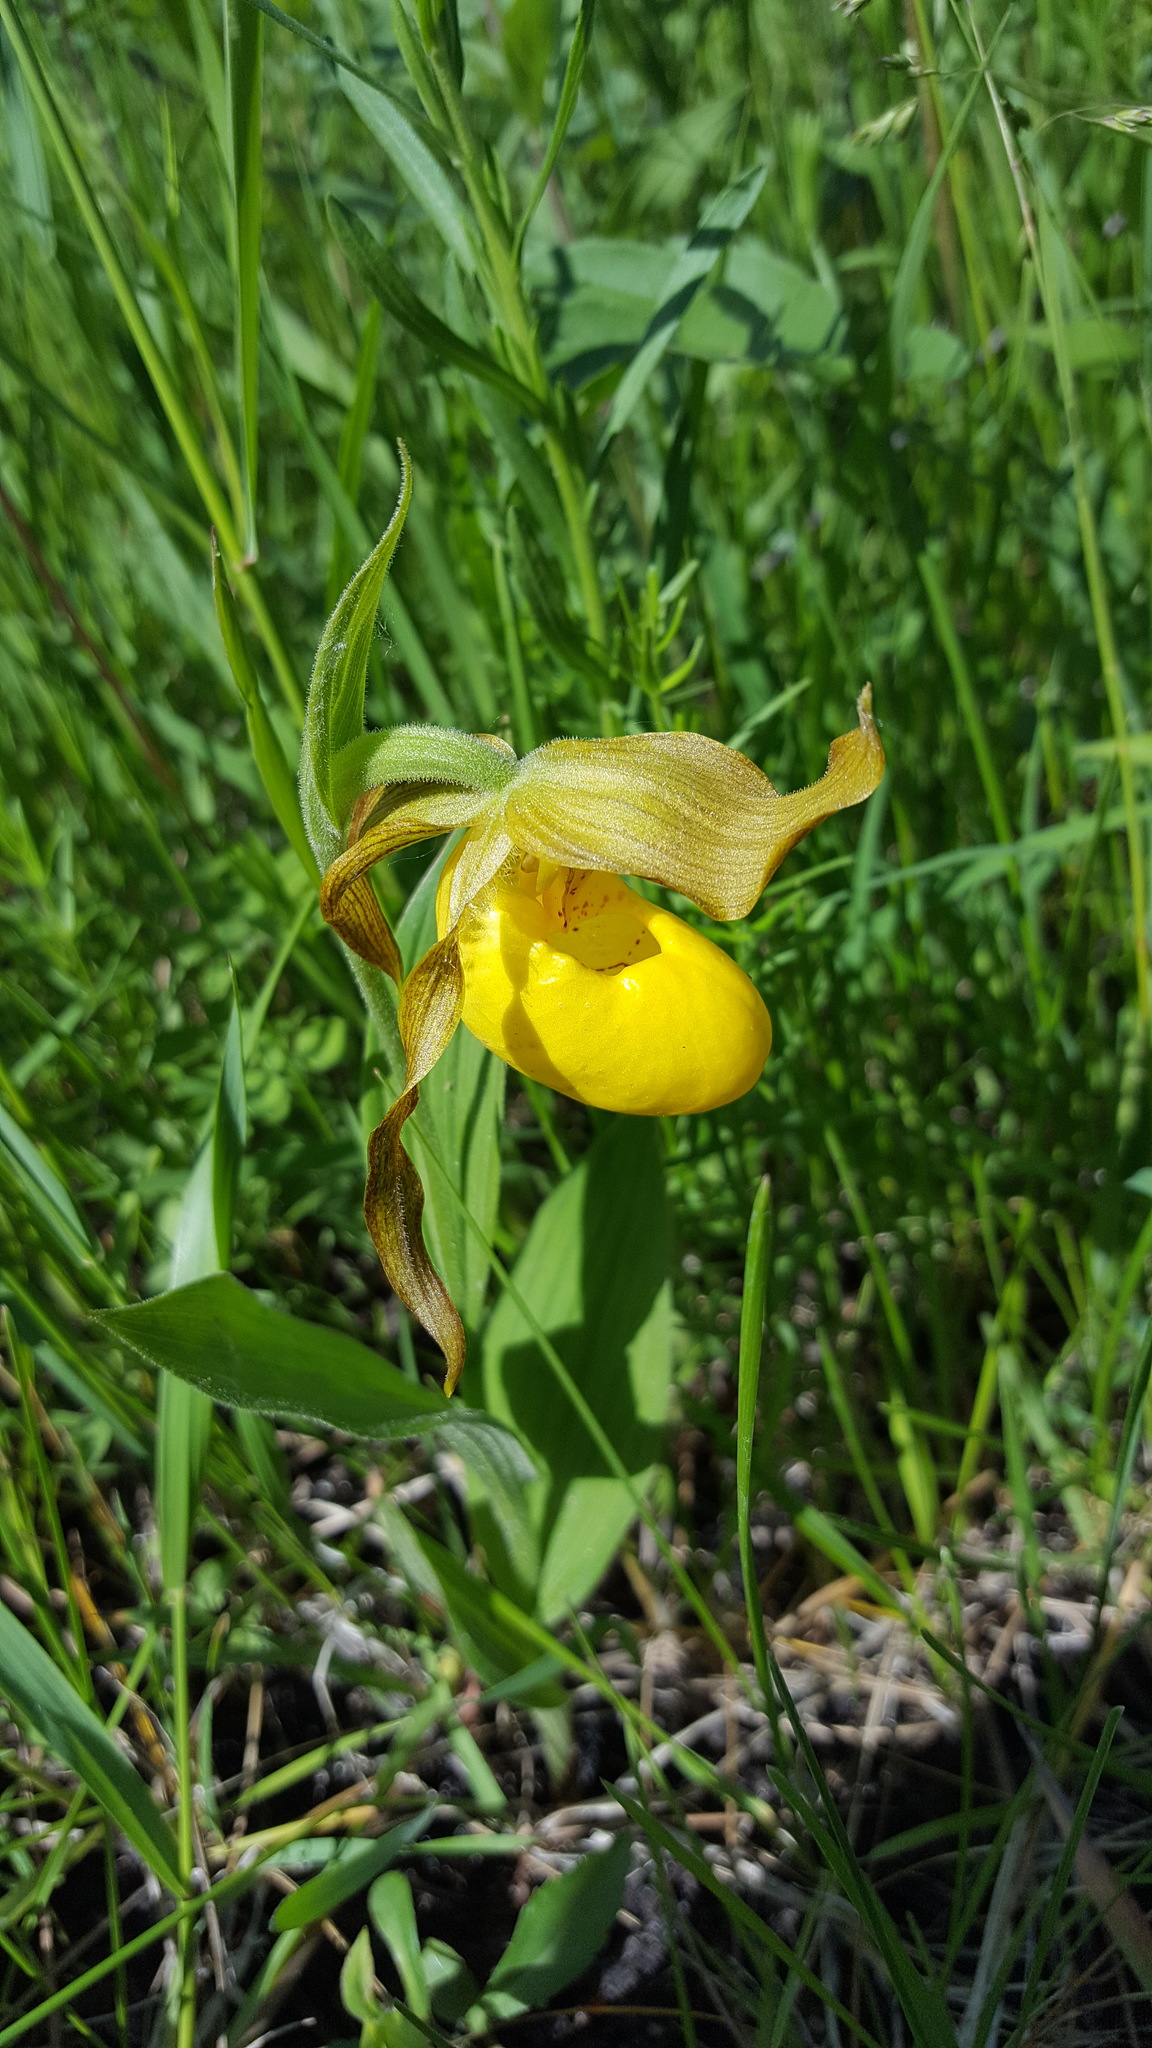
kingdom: Plantae
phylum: Tracheophyta
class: Liliopsida
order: Asparagales
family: Orchidaceae
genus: Cypripedium
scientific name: Cypripedium parviflorum
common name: American yellow lady's-slipper
